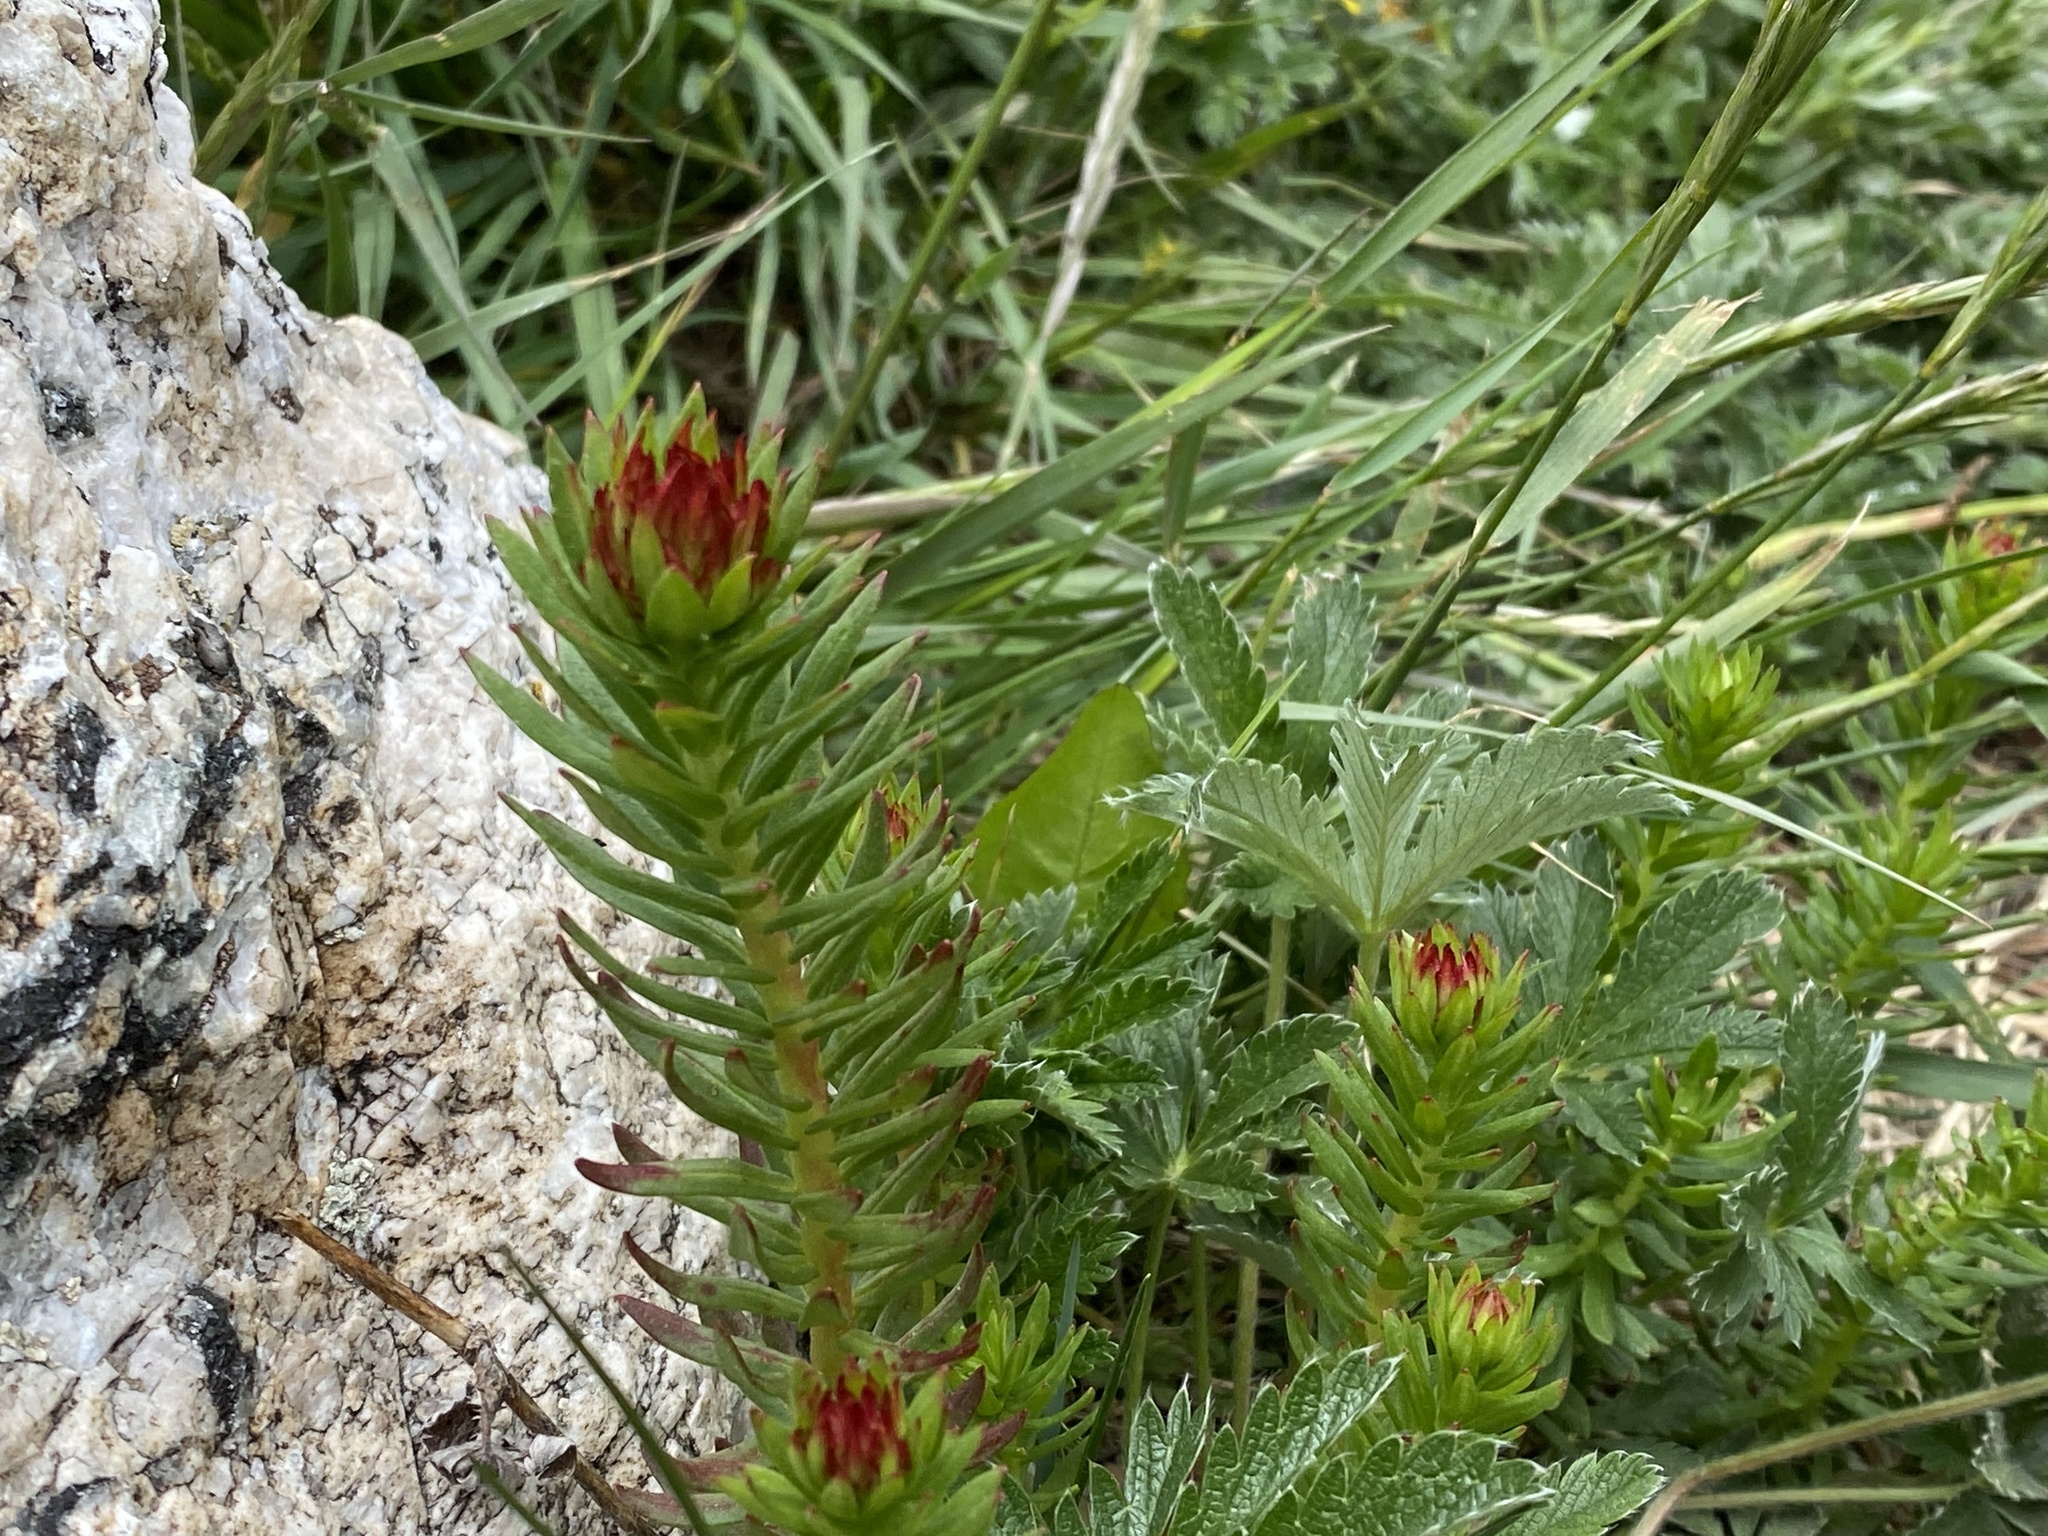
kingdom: Plantae
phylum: Tracheophyta
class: Magnoliopsida
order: Saxifragales
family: Crassulaceae
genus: Rhodiola
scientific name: Rhodiola integrifolia
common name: Western roseroot
